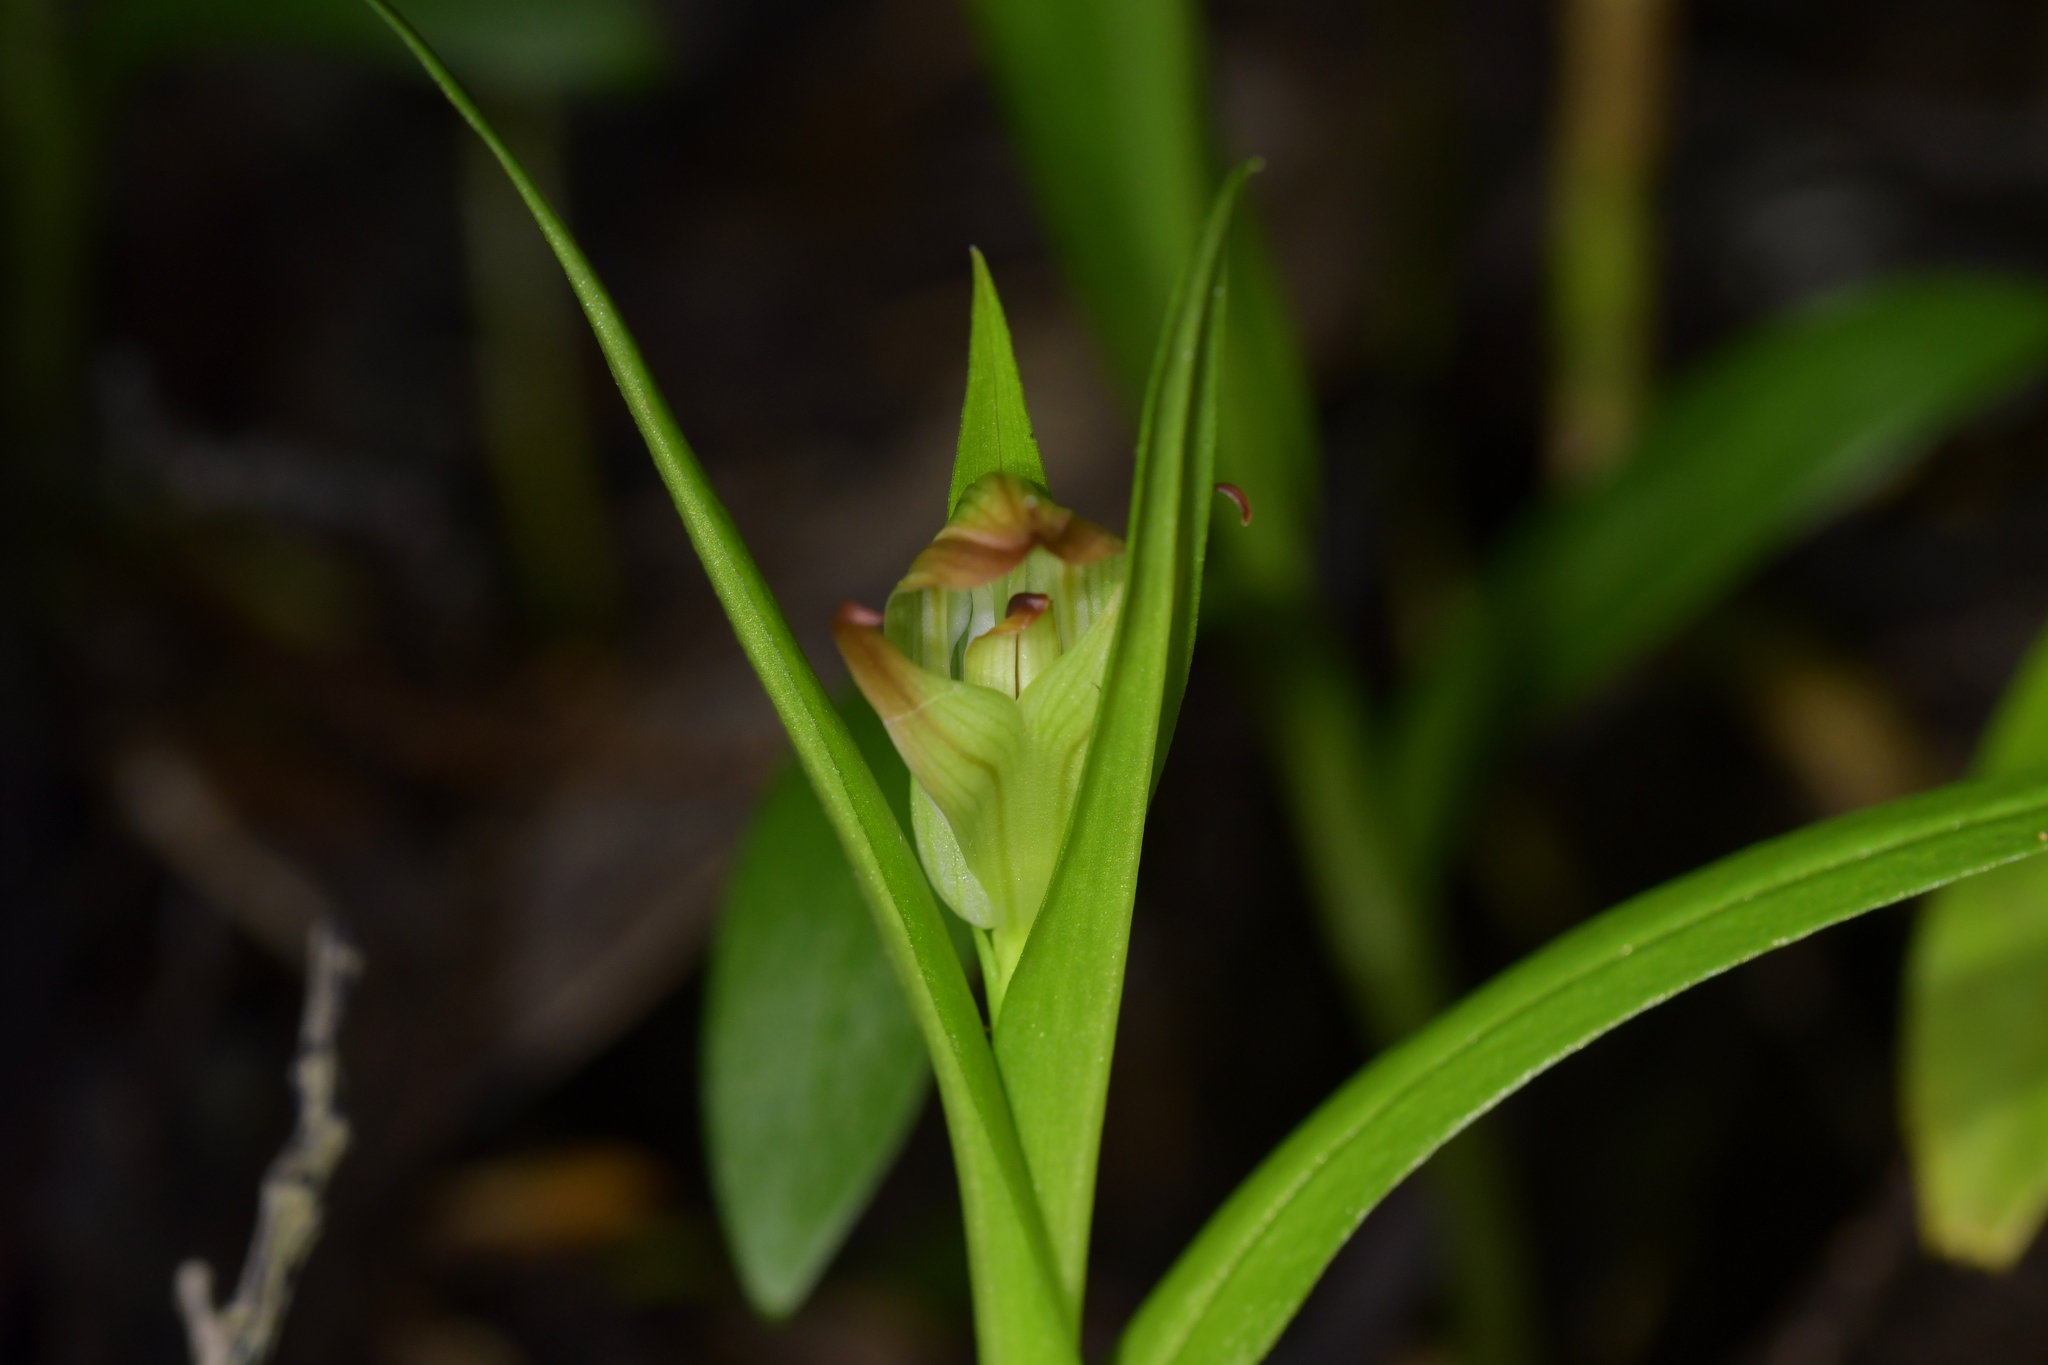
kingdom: Plantae
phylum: Tracheophyta
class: Liliopsida
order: Asparagales
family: Orchidaceae
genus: Pterostylis
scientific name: Pterostylis silvicultrix
